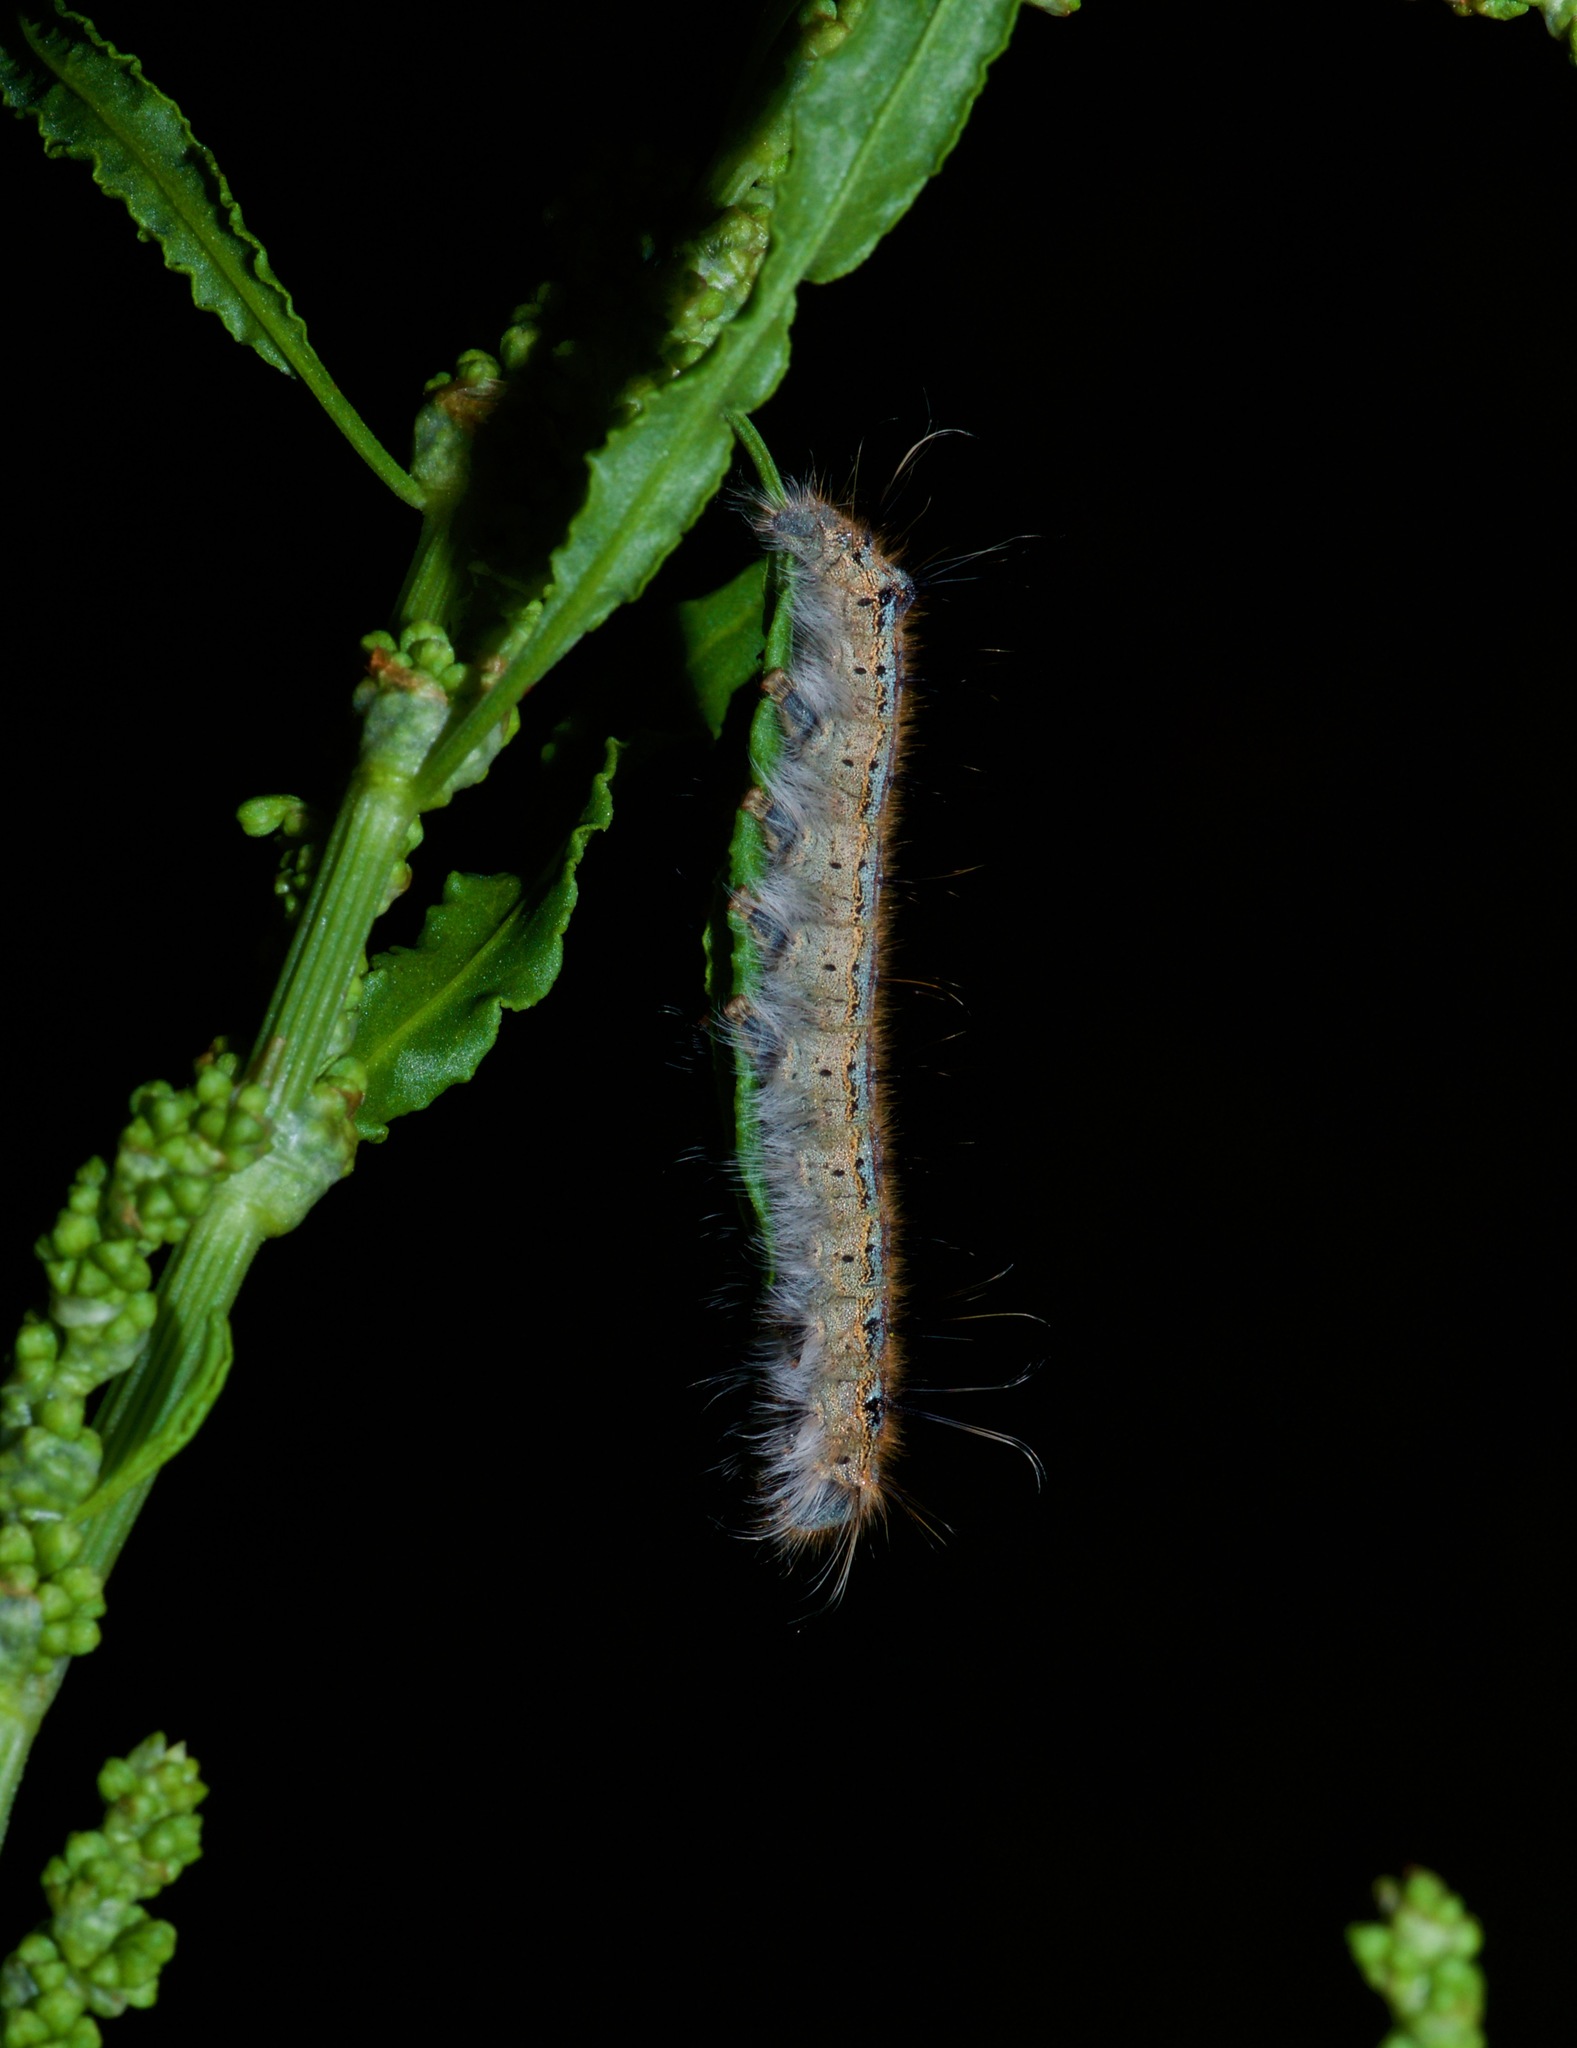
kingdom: Animalia
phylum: Arthropoda
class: Insecta
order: Lepidoptera
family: Lasiocampidae
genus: Malacosoma
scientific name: Malacosoma disstria
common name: Forest tent caterpillar
